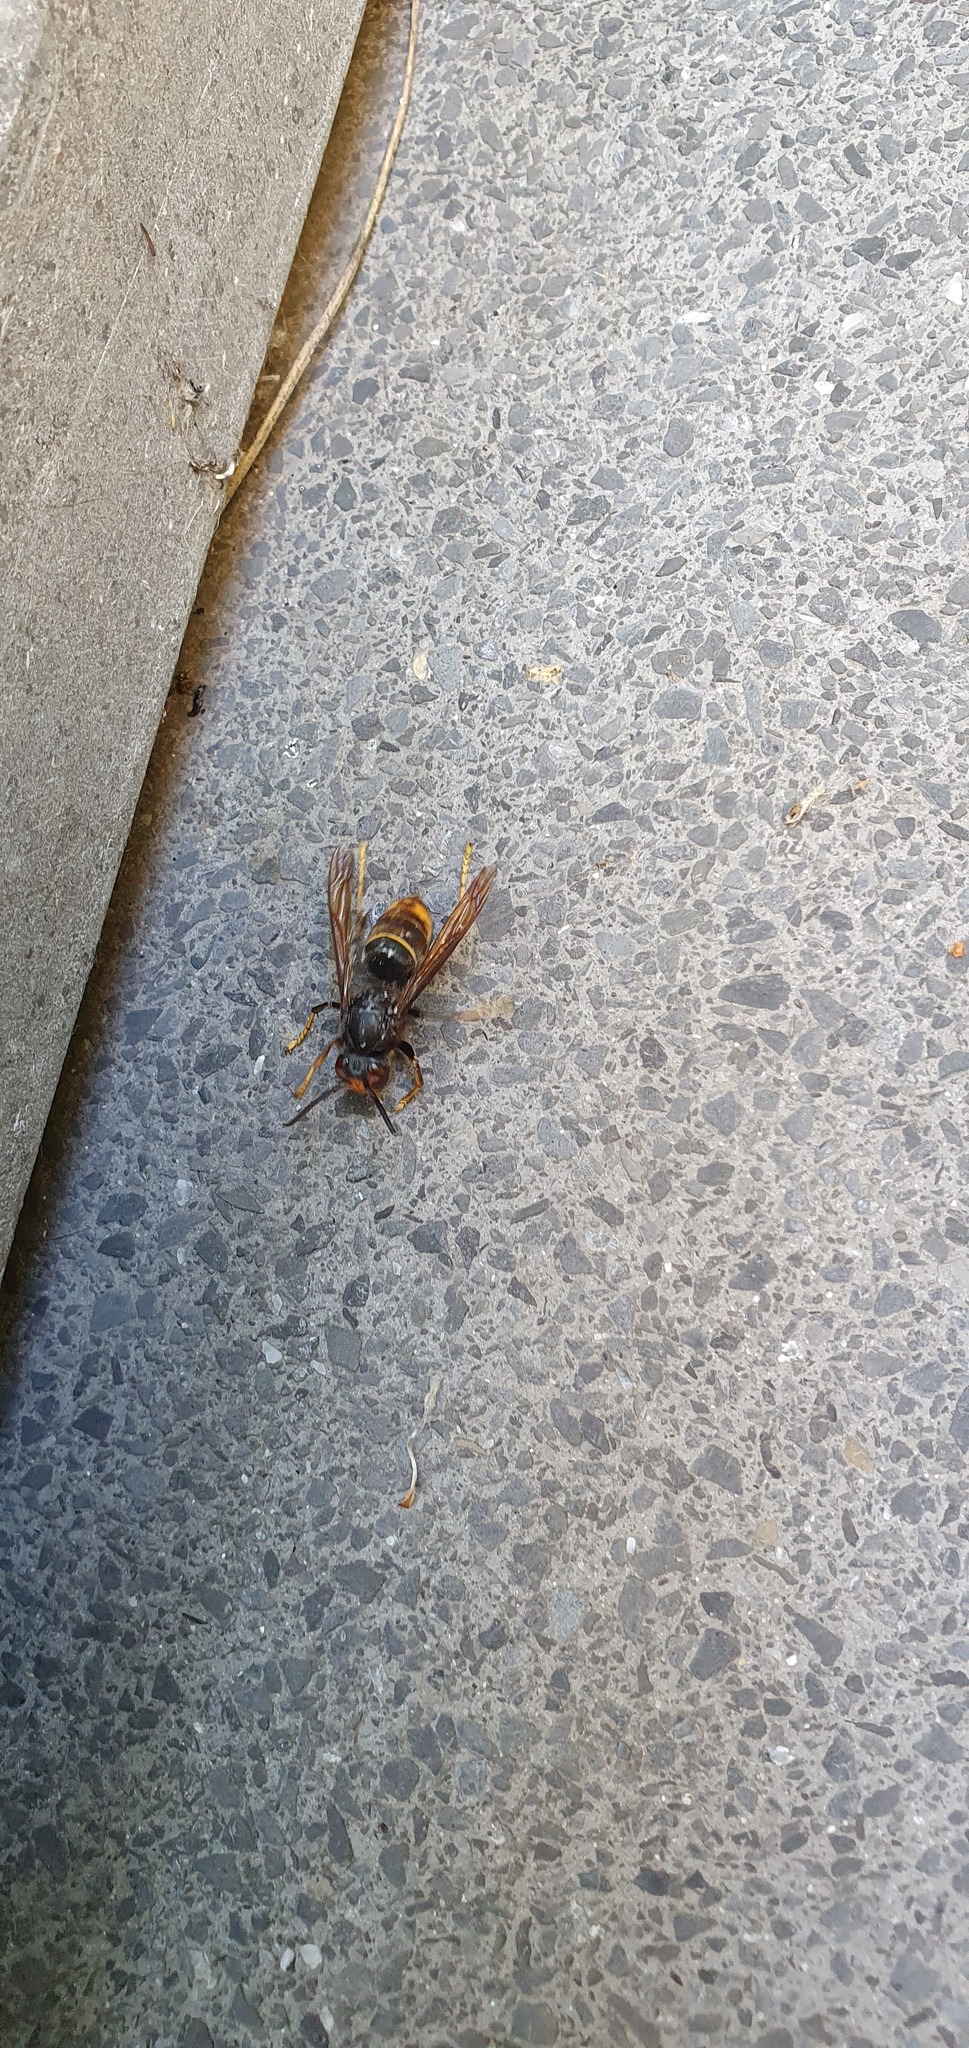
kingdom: Animalia
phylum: Arthropoda
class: Insecta
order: Hymenoptera
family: Vespidae
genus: Vespa
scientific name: Vespa velutina
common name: Asian hornet
